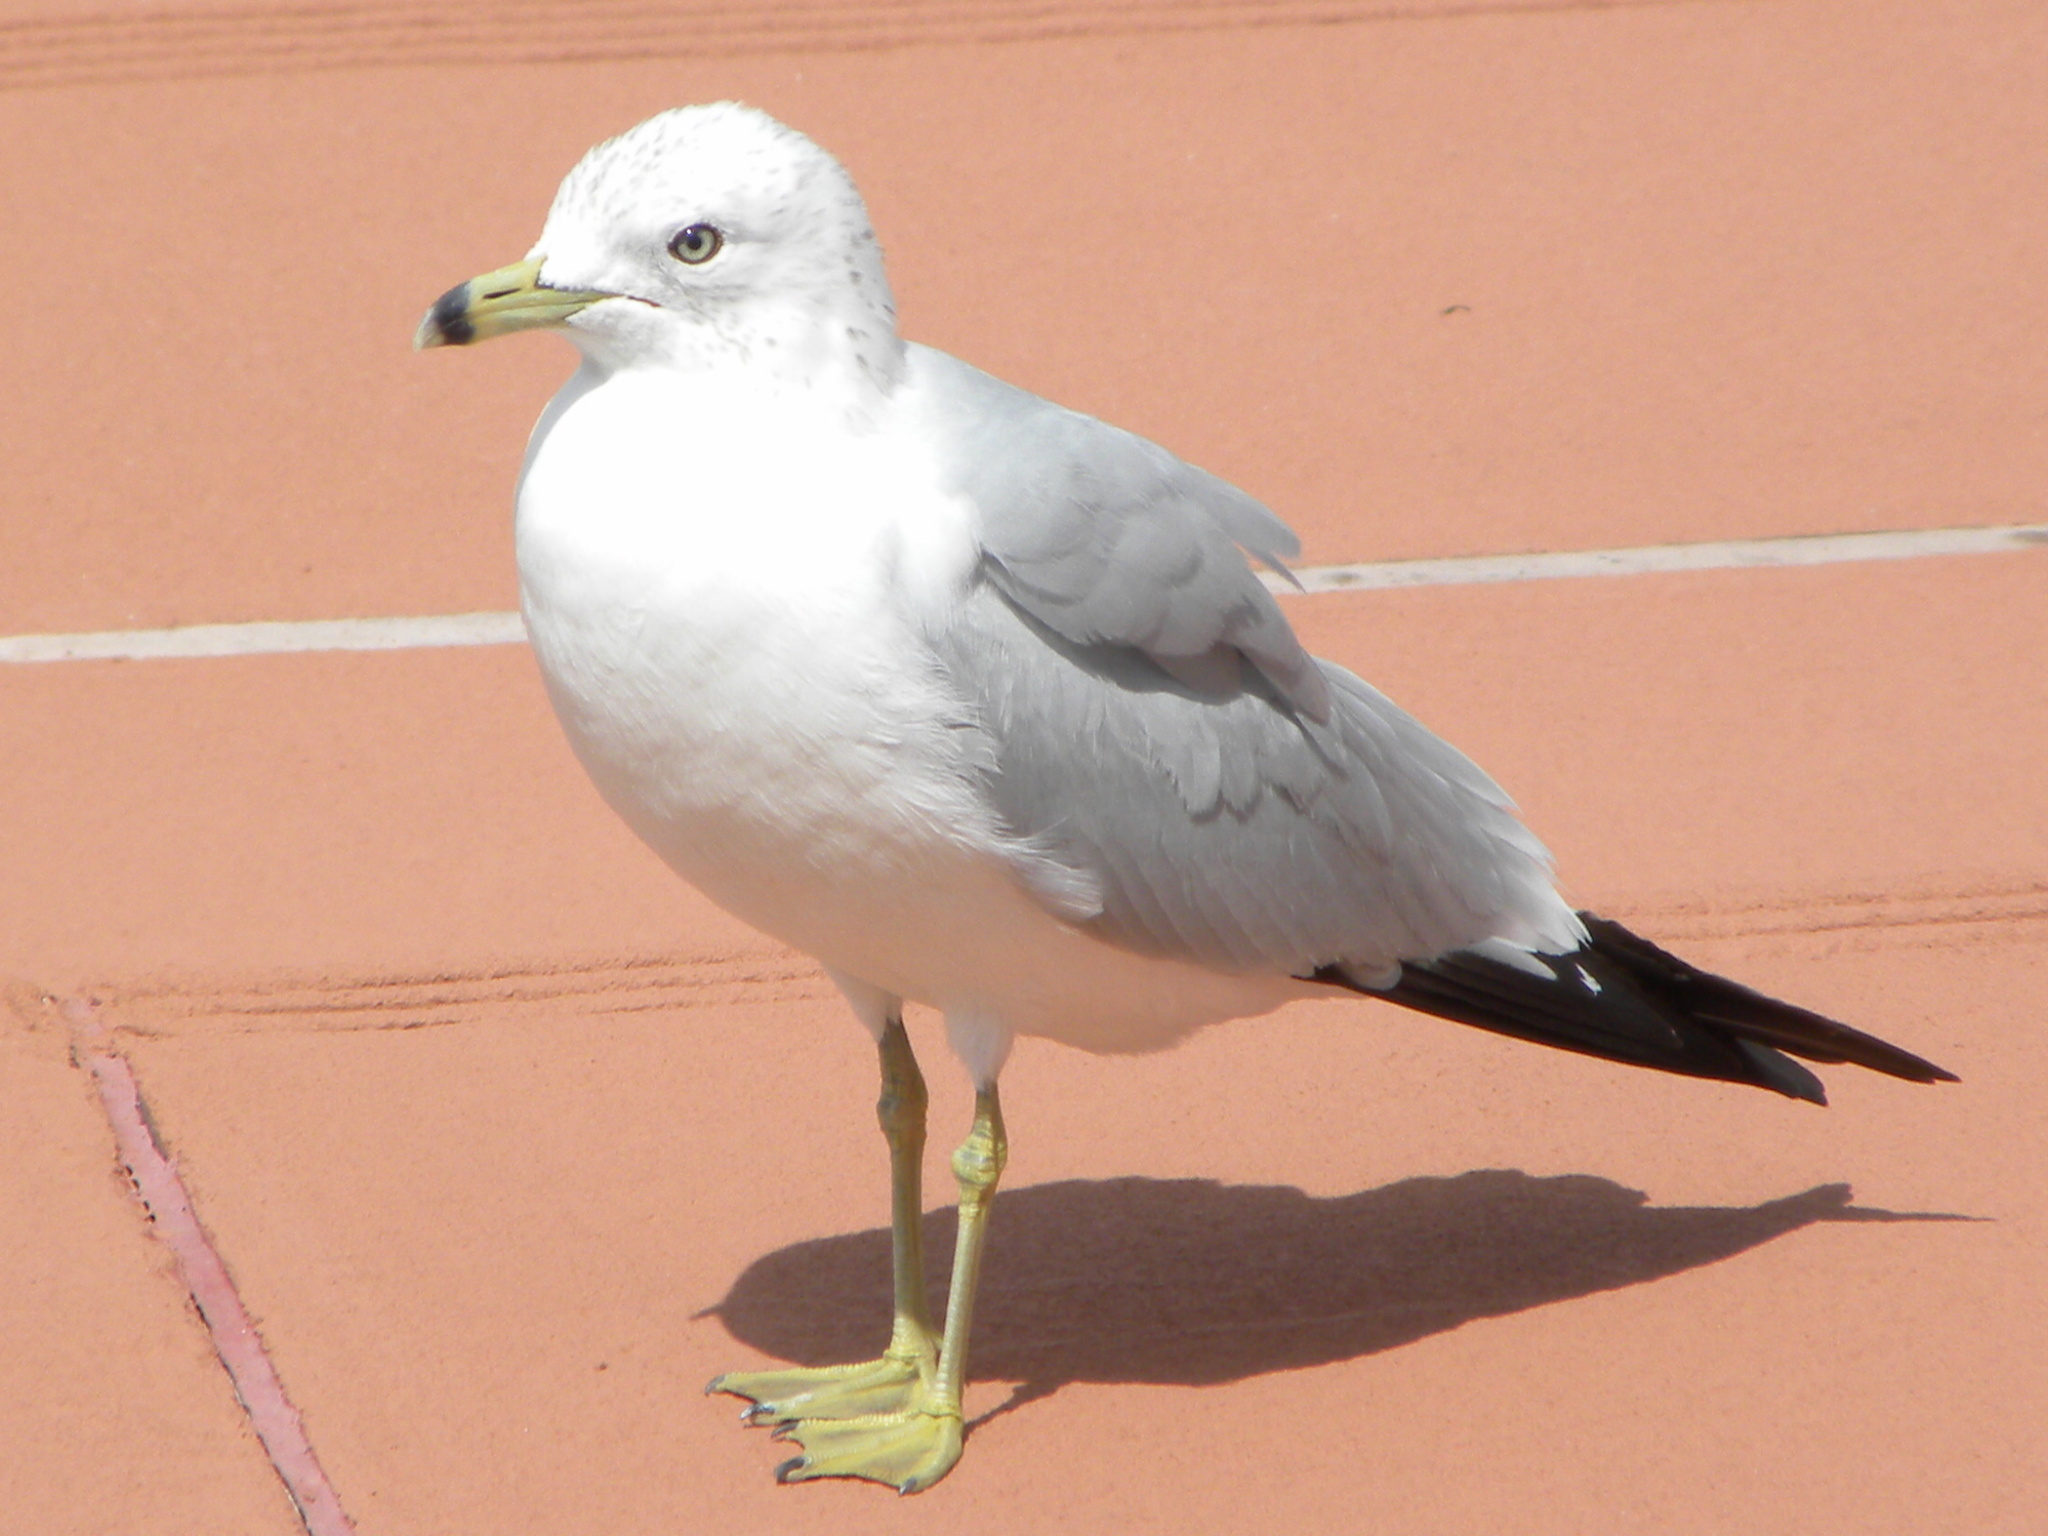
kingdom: Animalia
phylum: Chordata
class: Aves
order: Charadriiformes
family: Laridae
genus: Larus
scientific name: Larus delawarensis
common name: Ring-billed gull
